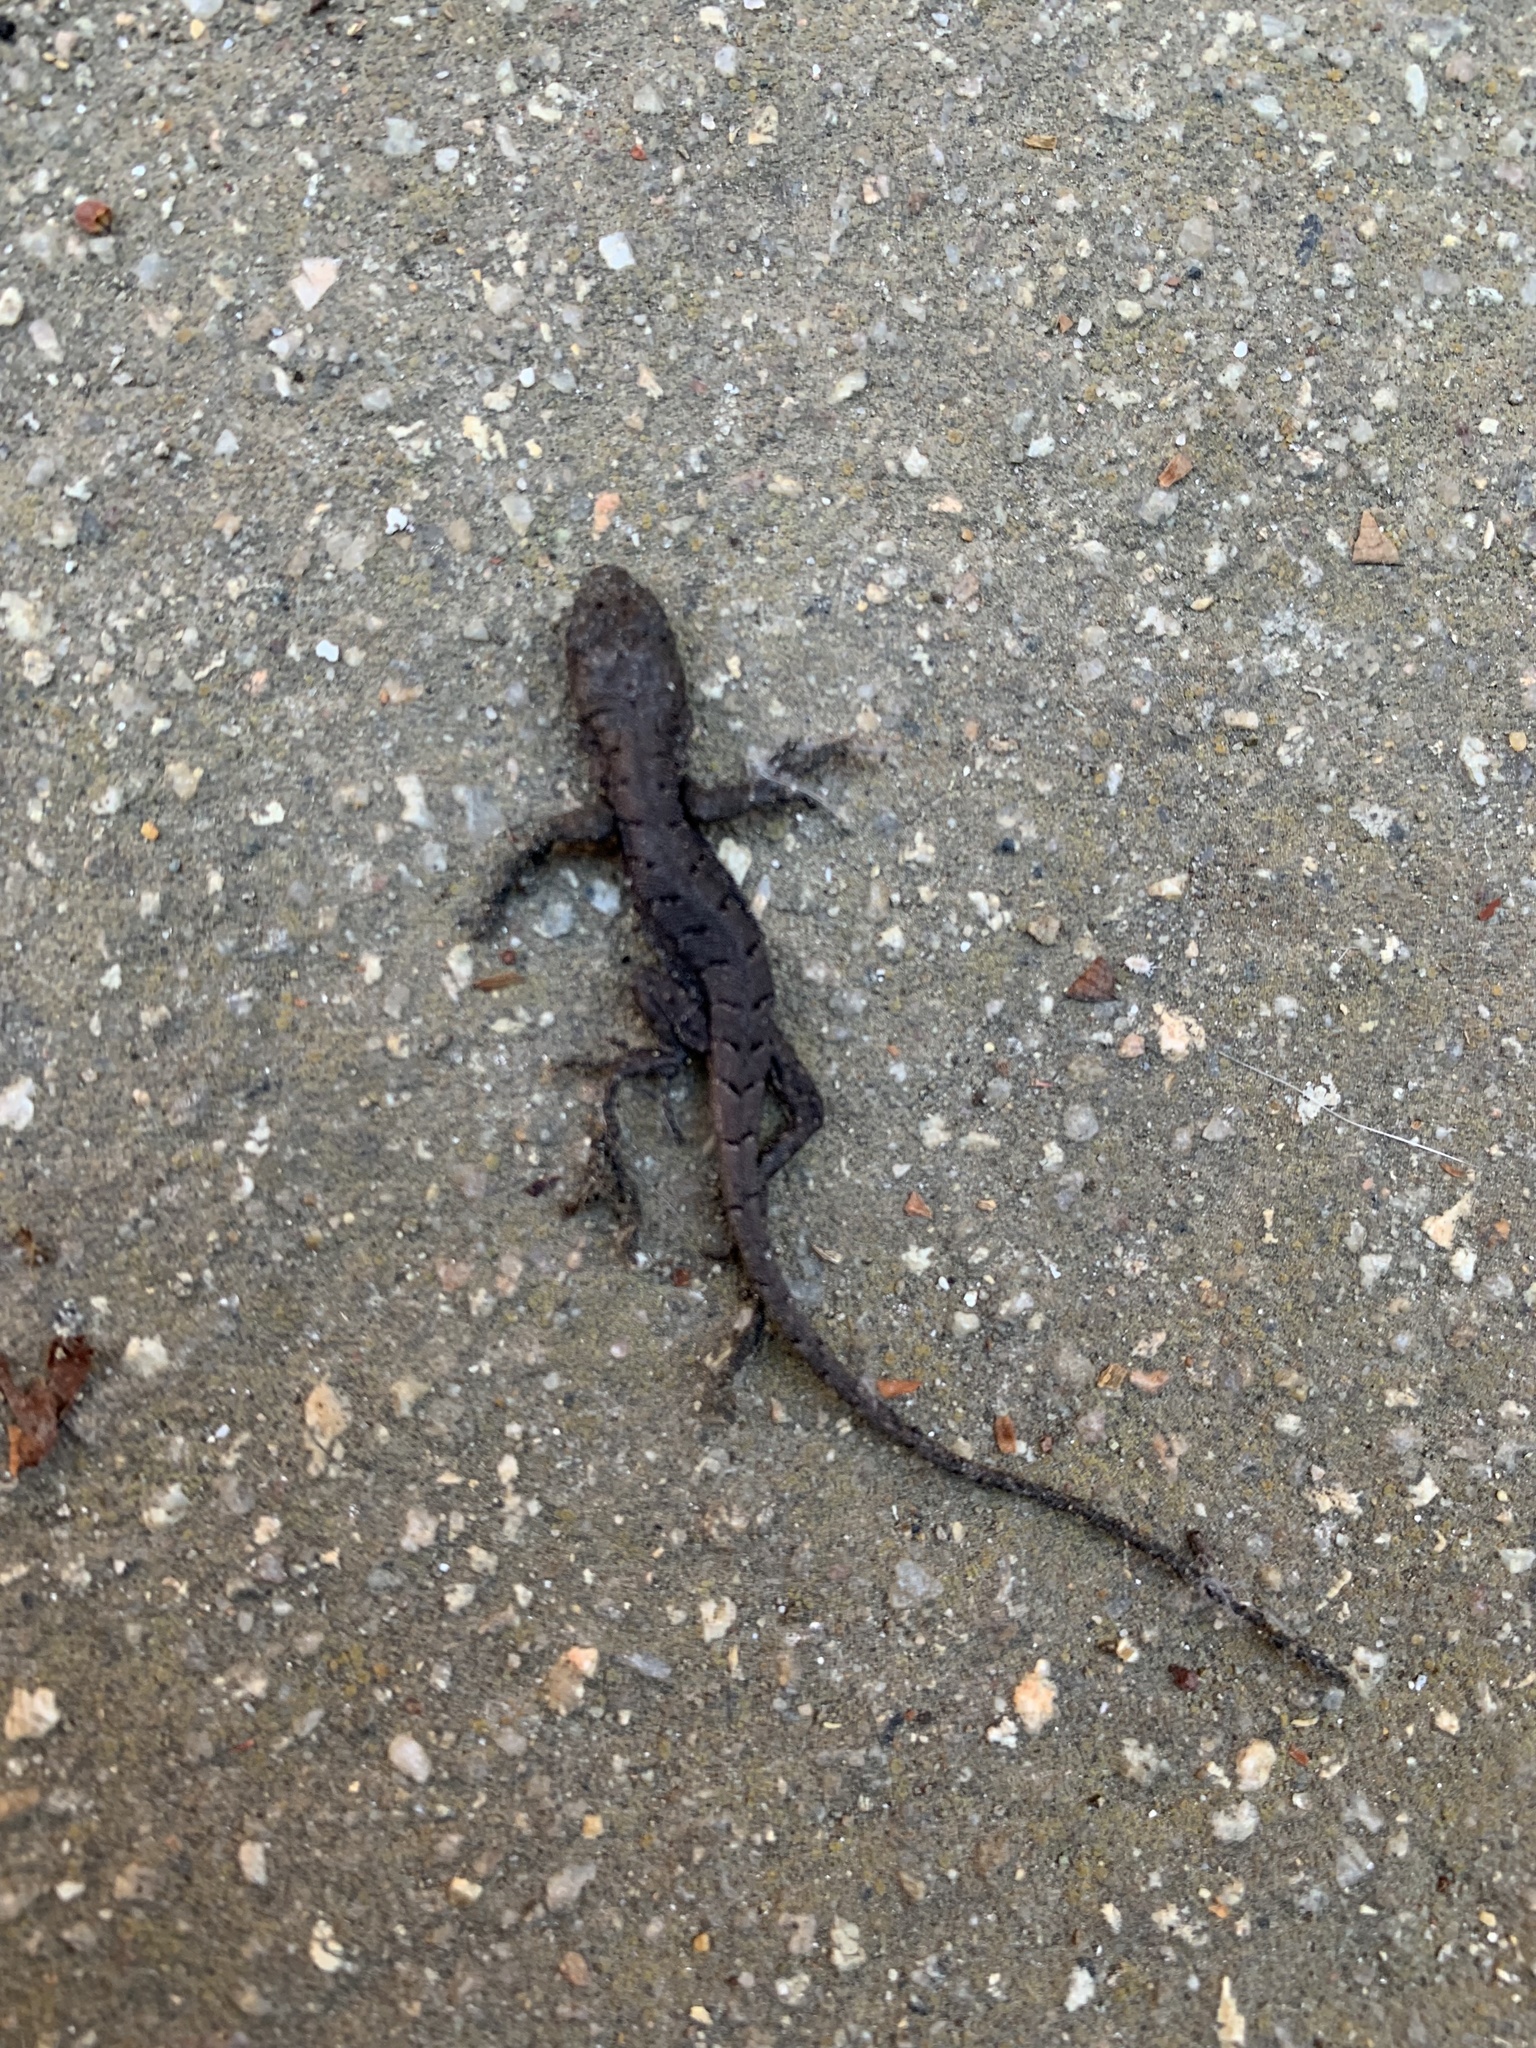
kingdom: Animalia
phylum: Chordata
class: Squamata
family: Liolaemidae
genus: Liolaemus
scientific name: Liolaemus tenuis
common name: Thin tree iguana
